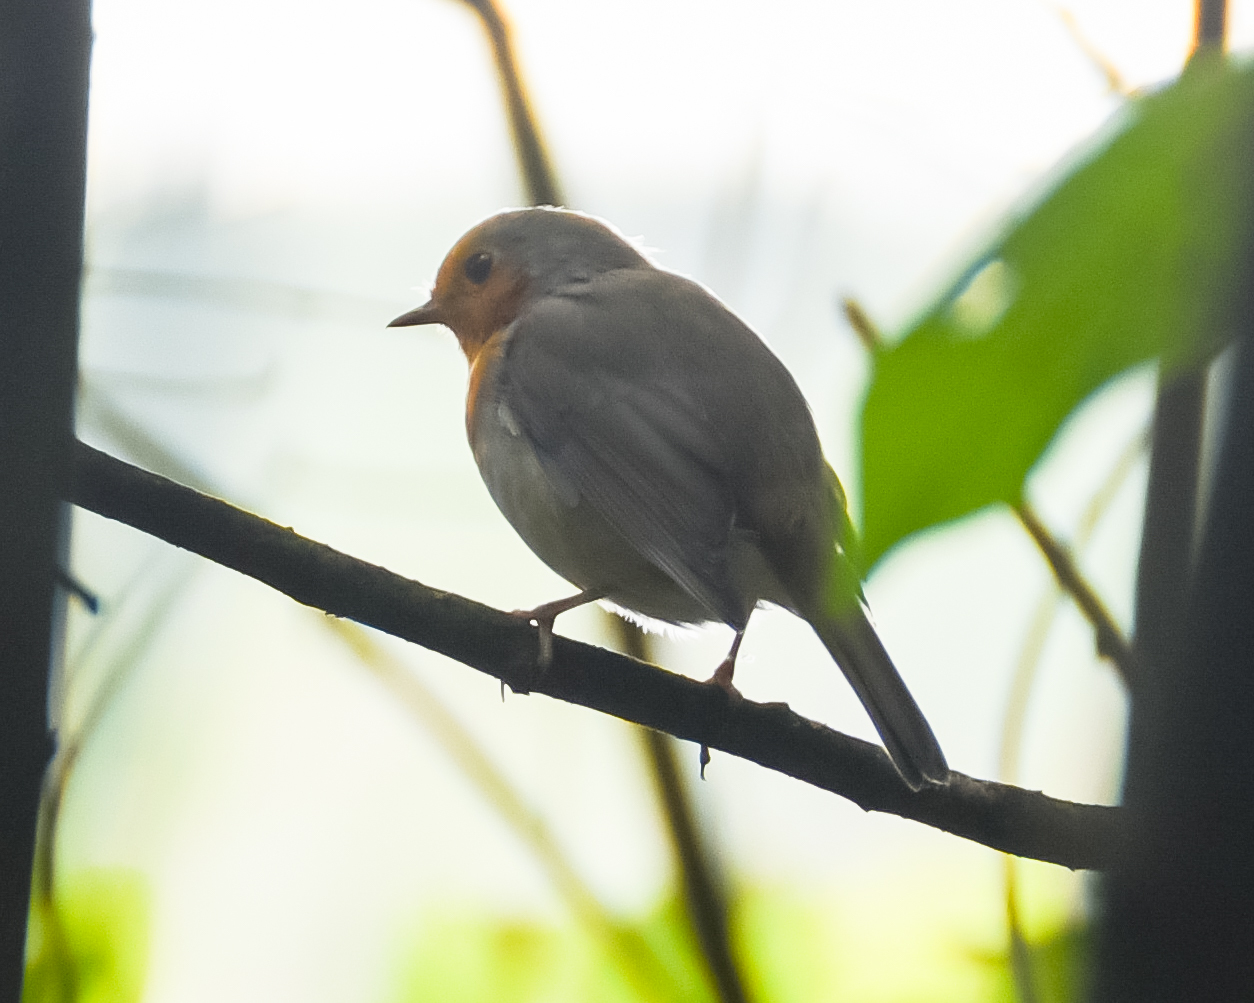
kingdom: Animalia
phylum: Chordata
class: Aves
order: Passeriformes
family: Muscicapidae
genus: Erithacus
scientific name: Erithacus rubecula
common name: European robin
